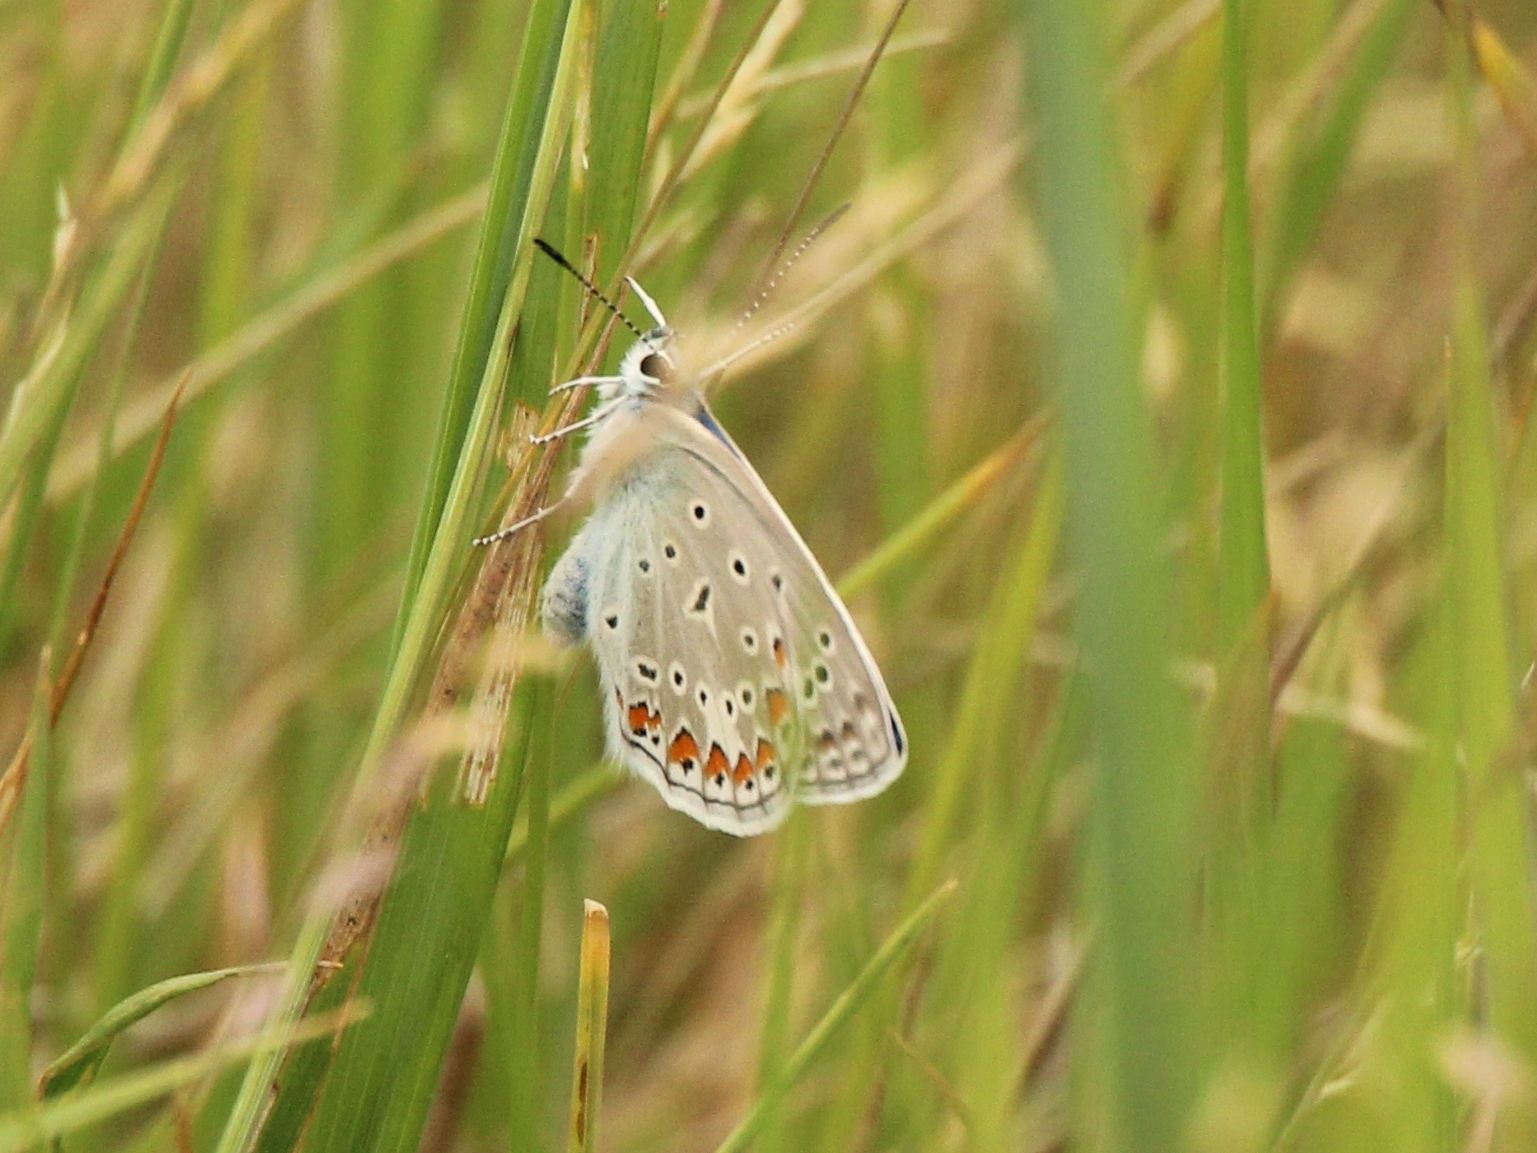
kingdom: Animalia
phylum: Arthropoda
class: Insecta
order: Lepidoptera
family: Lycaenidae
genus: Polyommatus
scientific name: Polyommatus icarus
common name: Common blue
